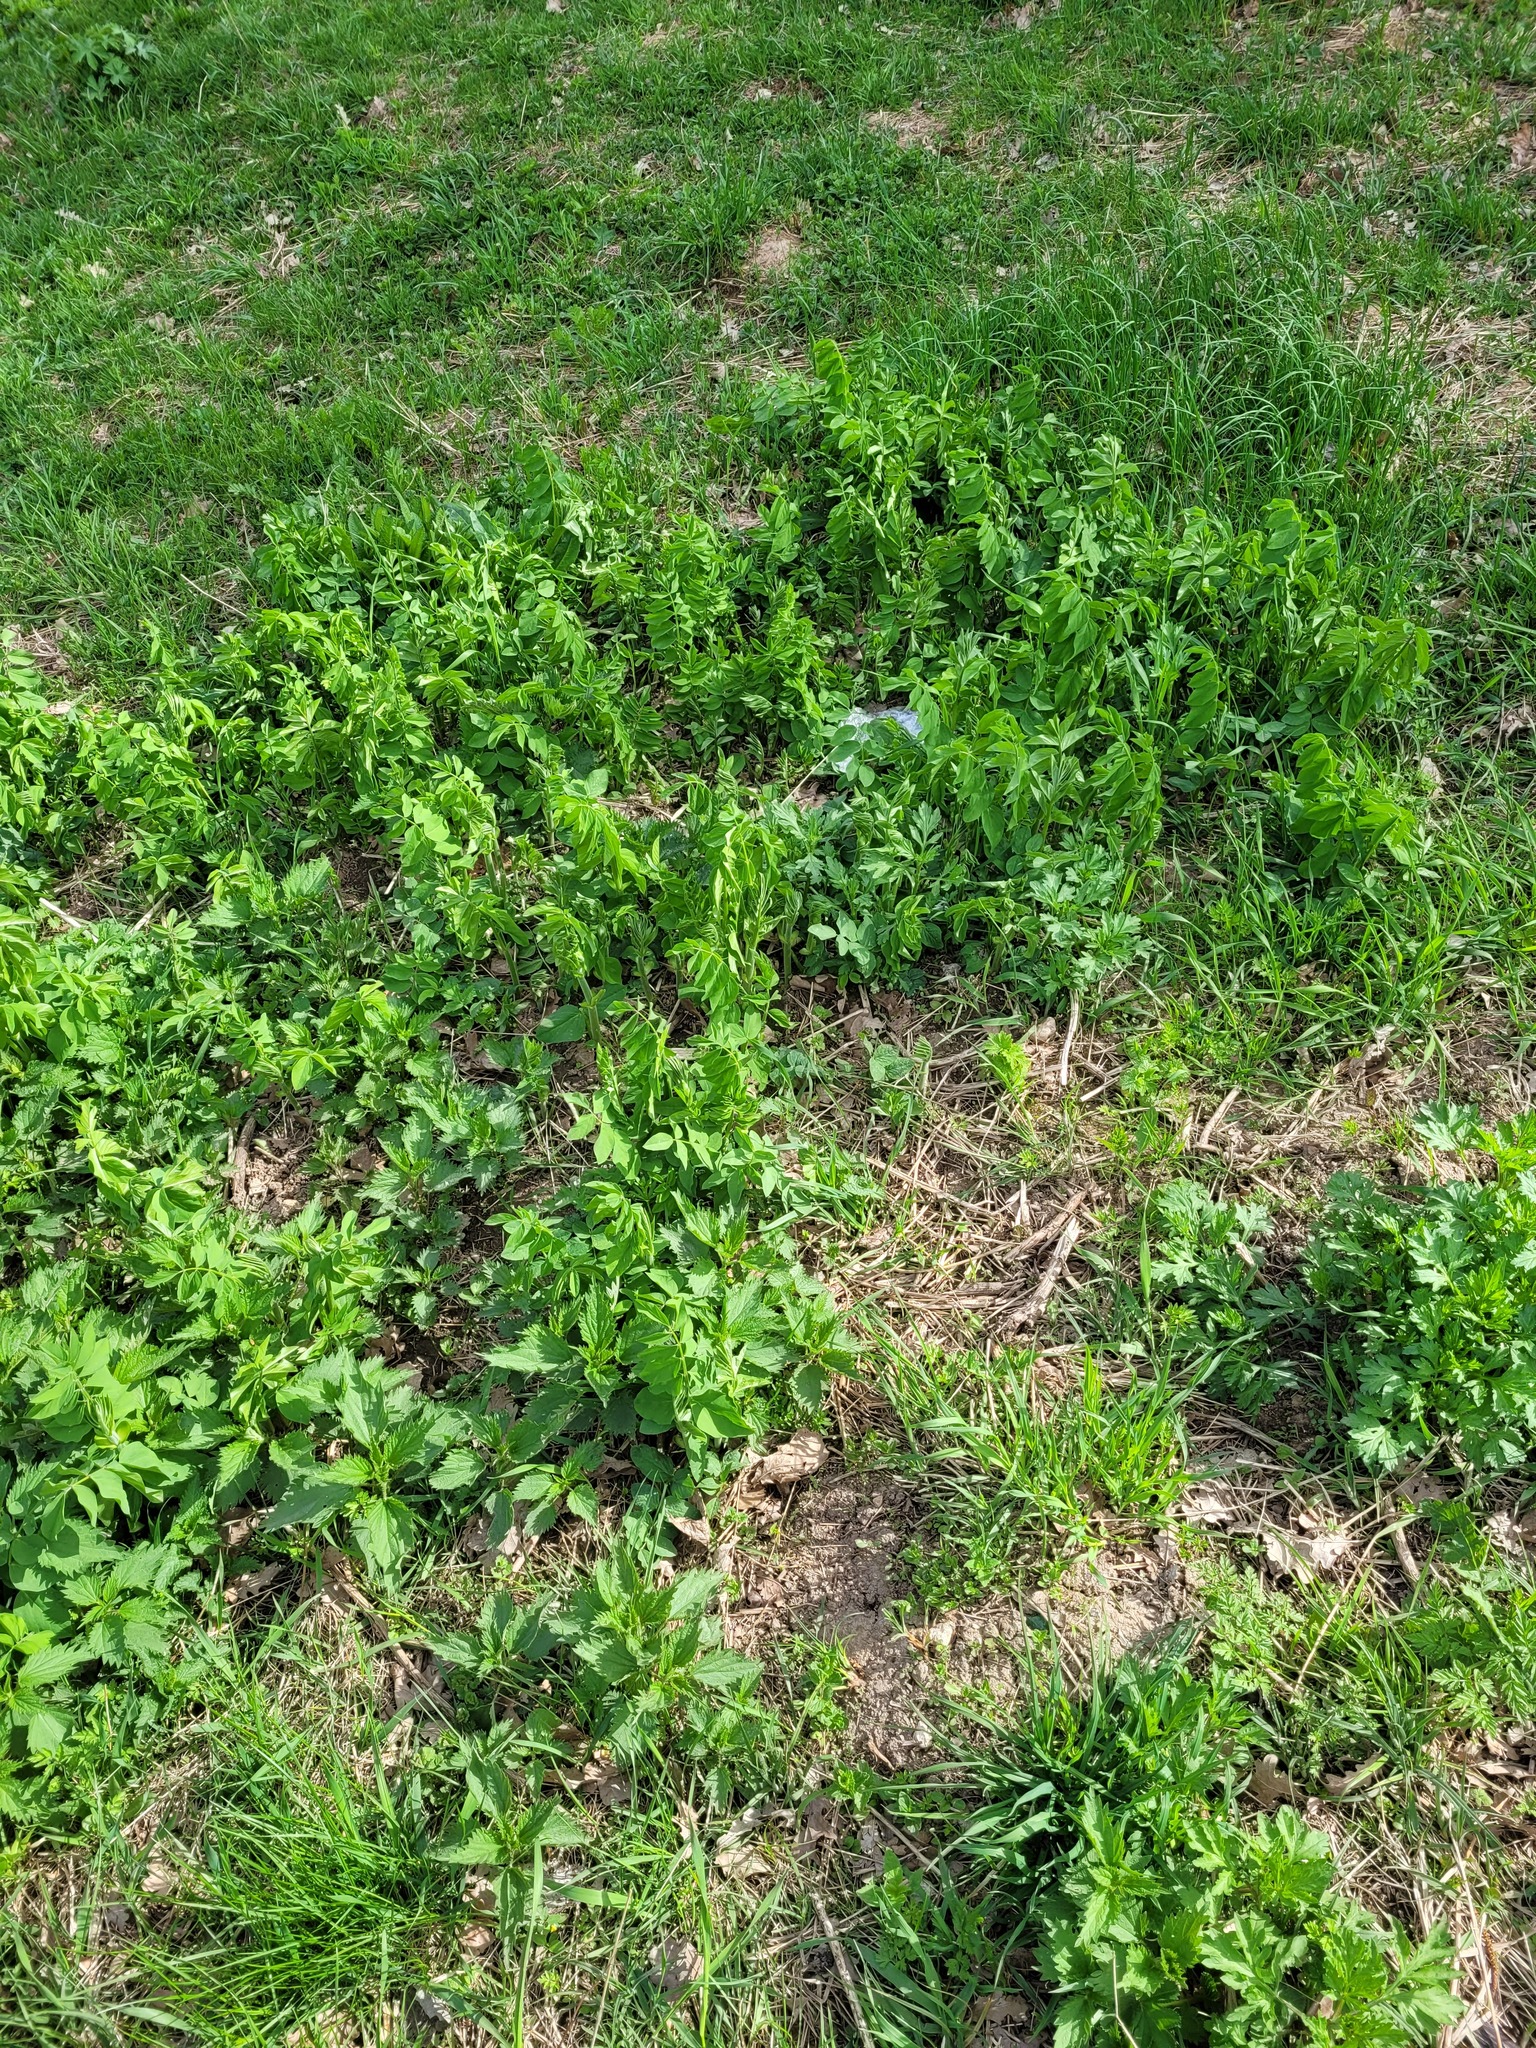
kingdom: Plantae
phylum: Tracheophyta
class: Magnoliopsida
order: Fabales
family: Fabaceae
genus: Galega
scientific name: Galega orientalis
